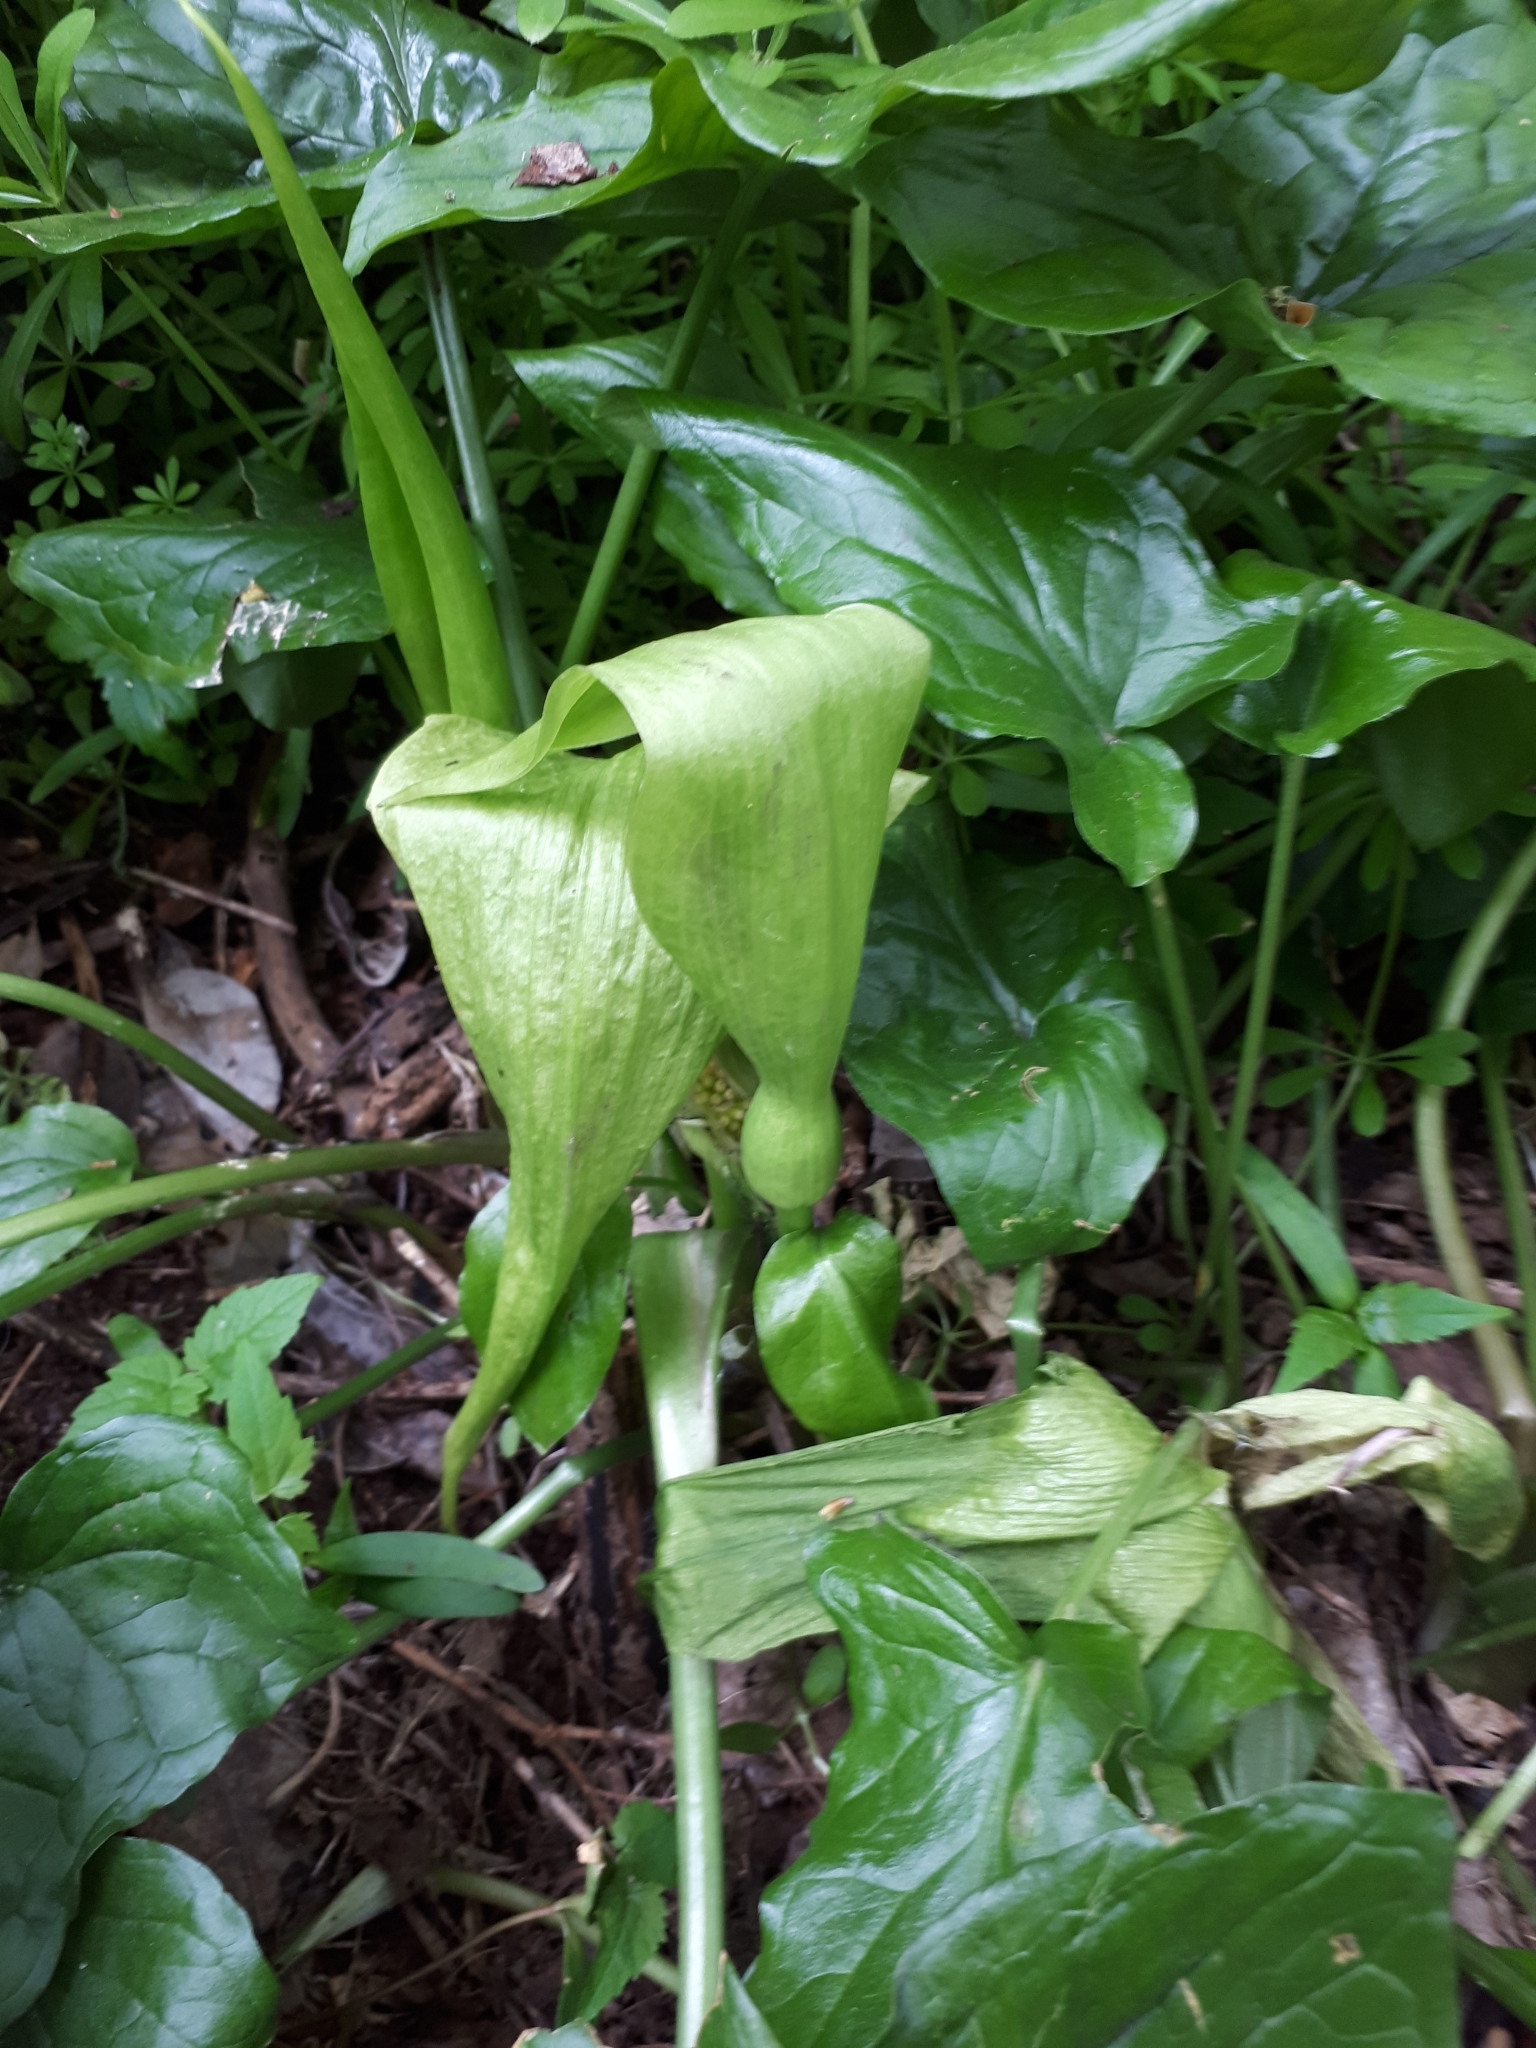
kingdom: Plantae
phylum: Tracheophyta
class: Liliopsida
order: Alismatales
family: Araceae
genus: Arum
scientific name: Arum maculatum
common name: Lords-and-ladies
